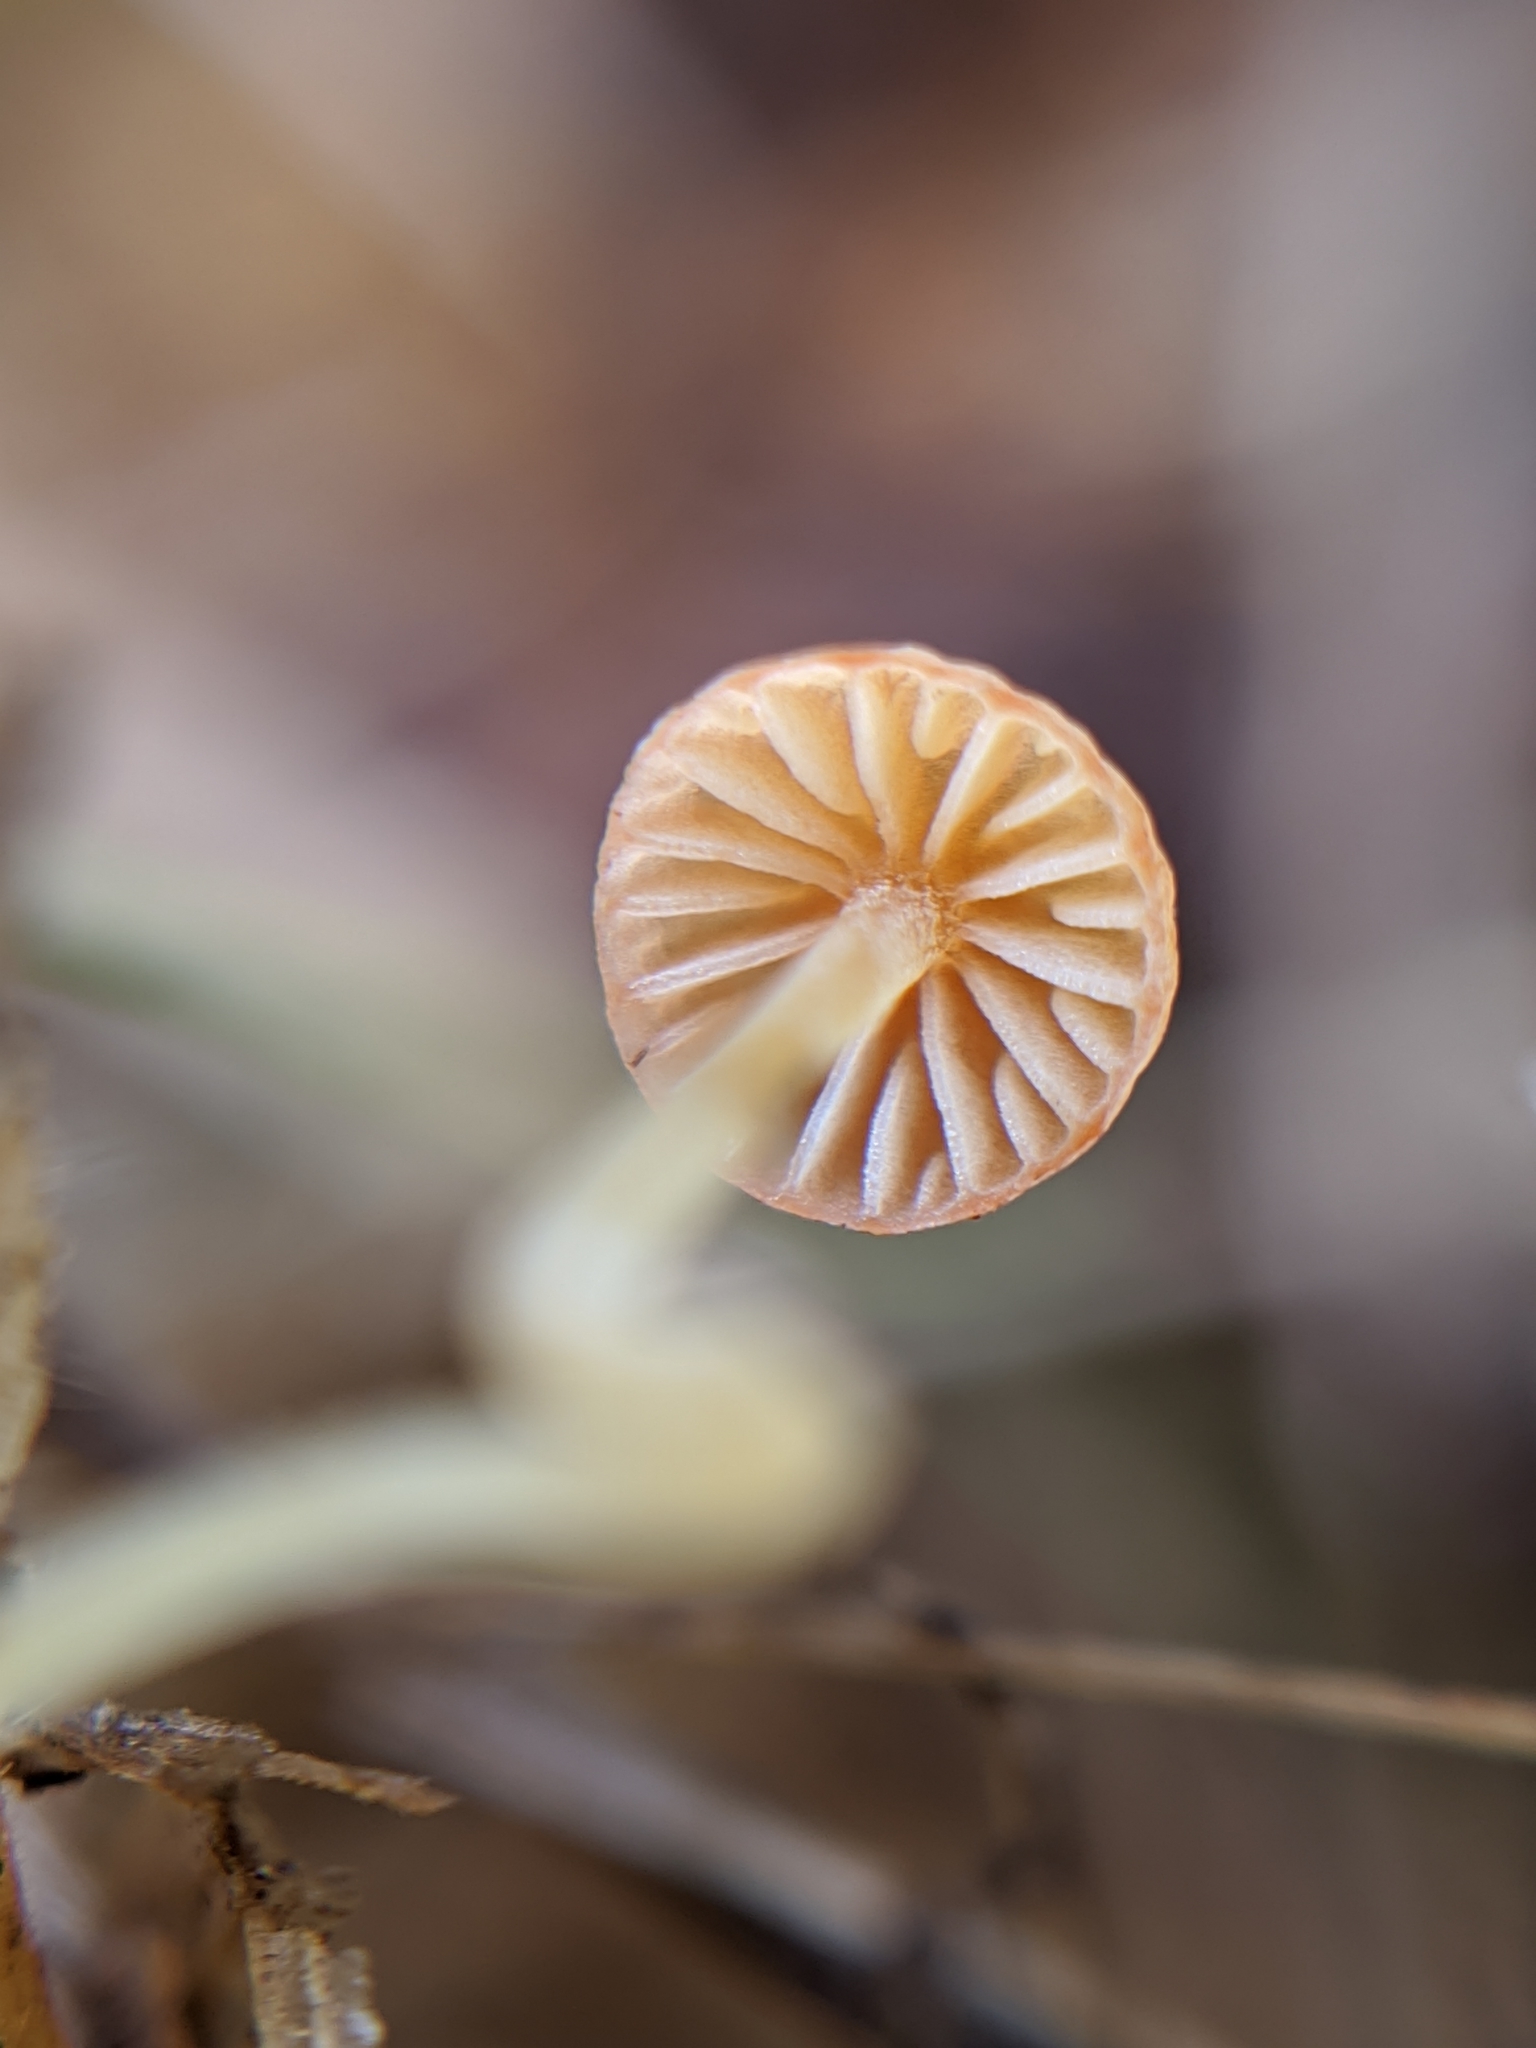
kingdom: Fungi
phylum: Basidiomycota
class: Agaricomycetes
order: Agaricales
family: Mycenaceae
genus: Mycena
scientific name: Mycena acicula
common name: Orange bonnet
